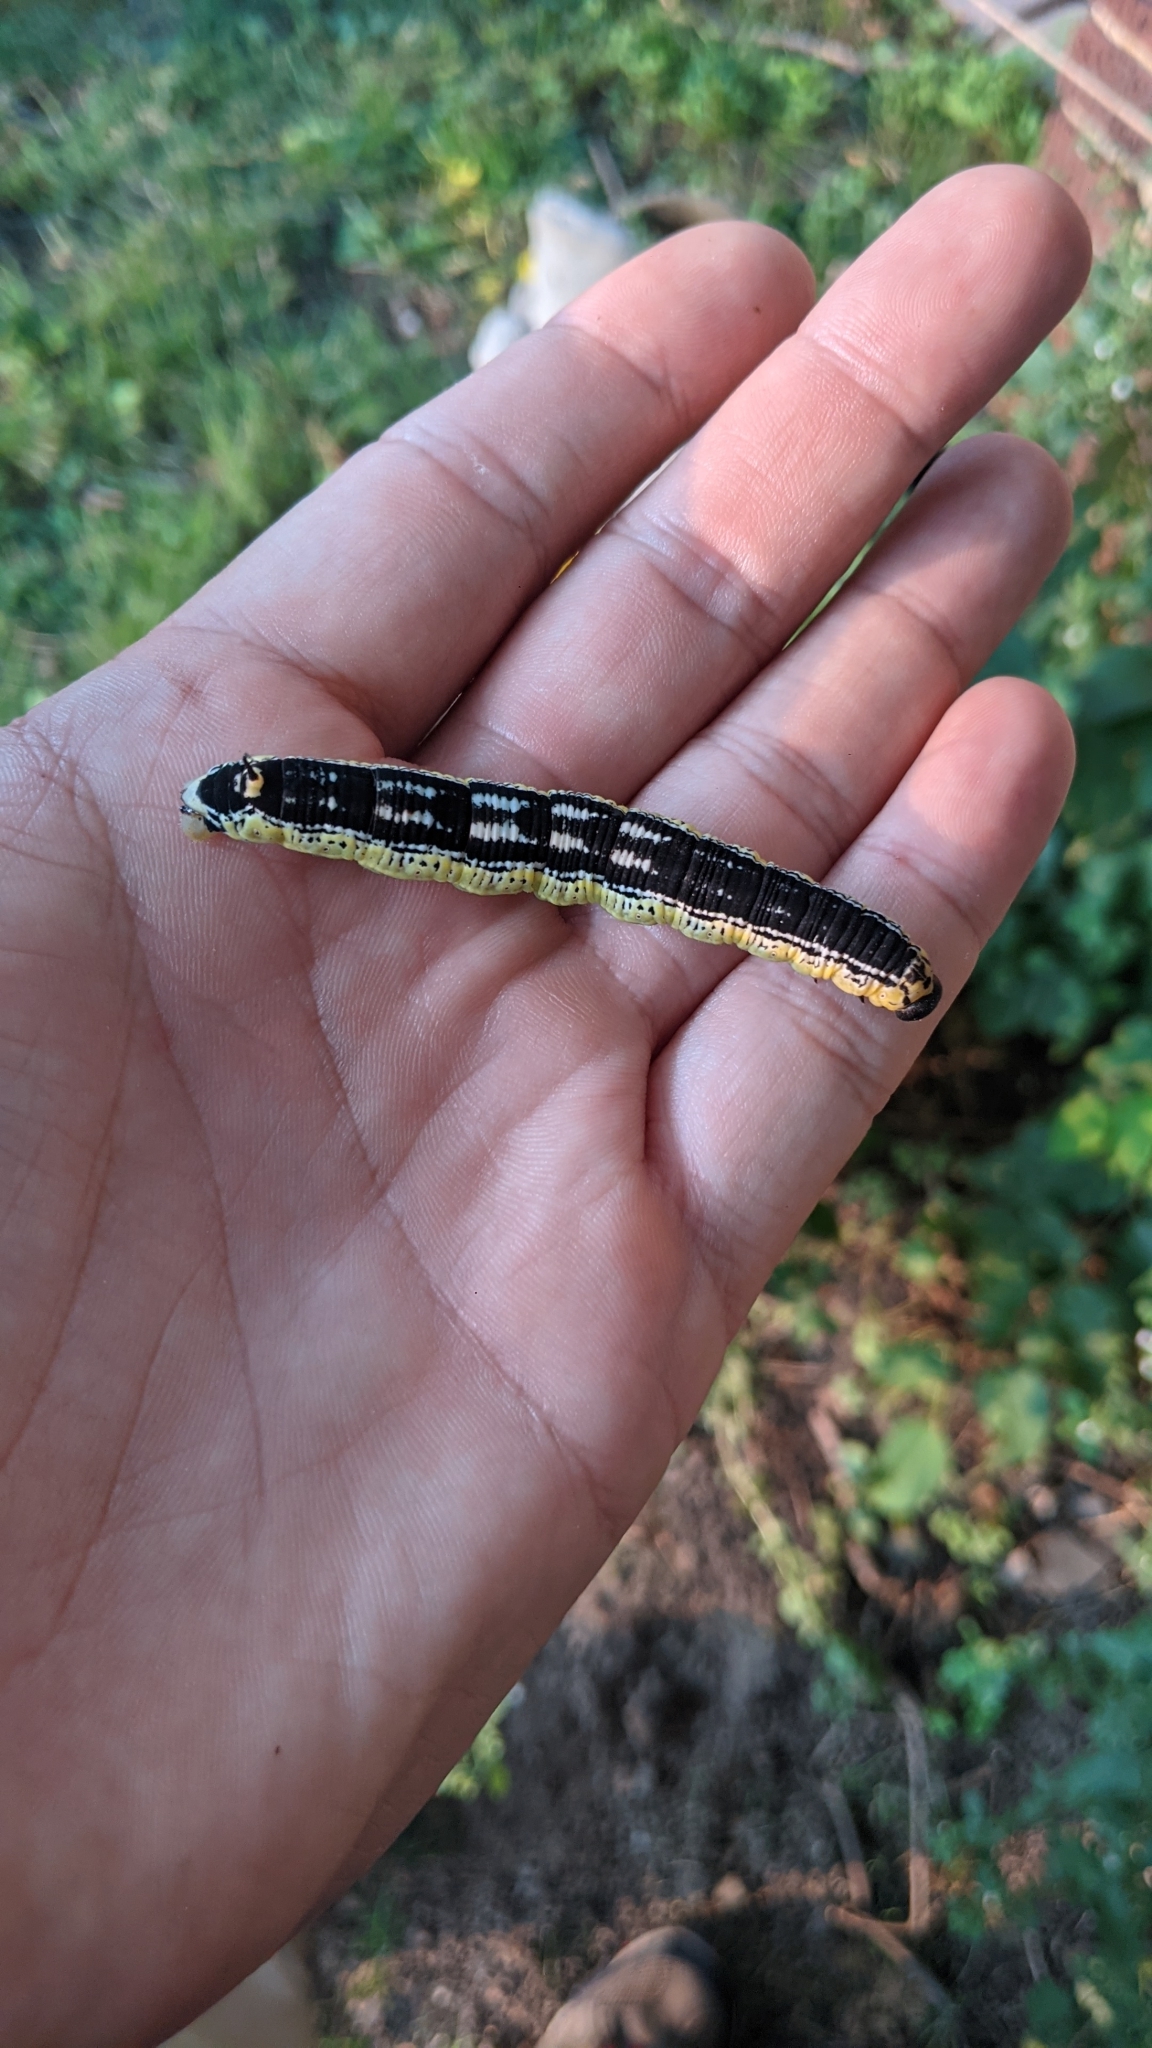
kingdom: Animalia
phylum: Arthropoda
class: Insecta
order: Lepidoptera
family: Sphingidae
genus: Ceratomia
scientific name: Ceratomia catalpae
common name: Catalpa hornworm
